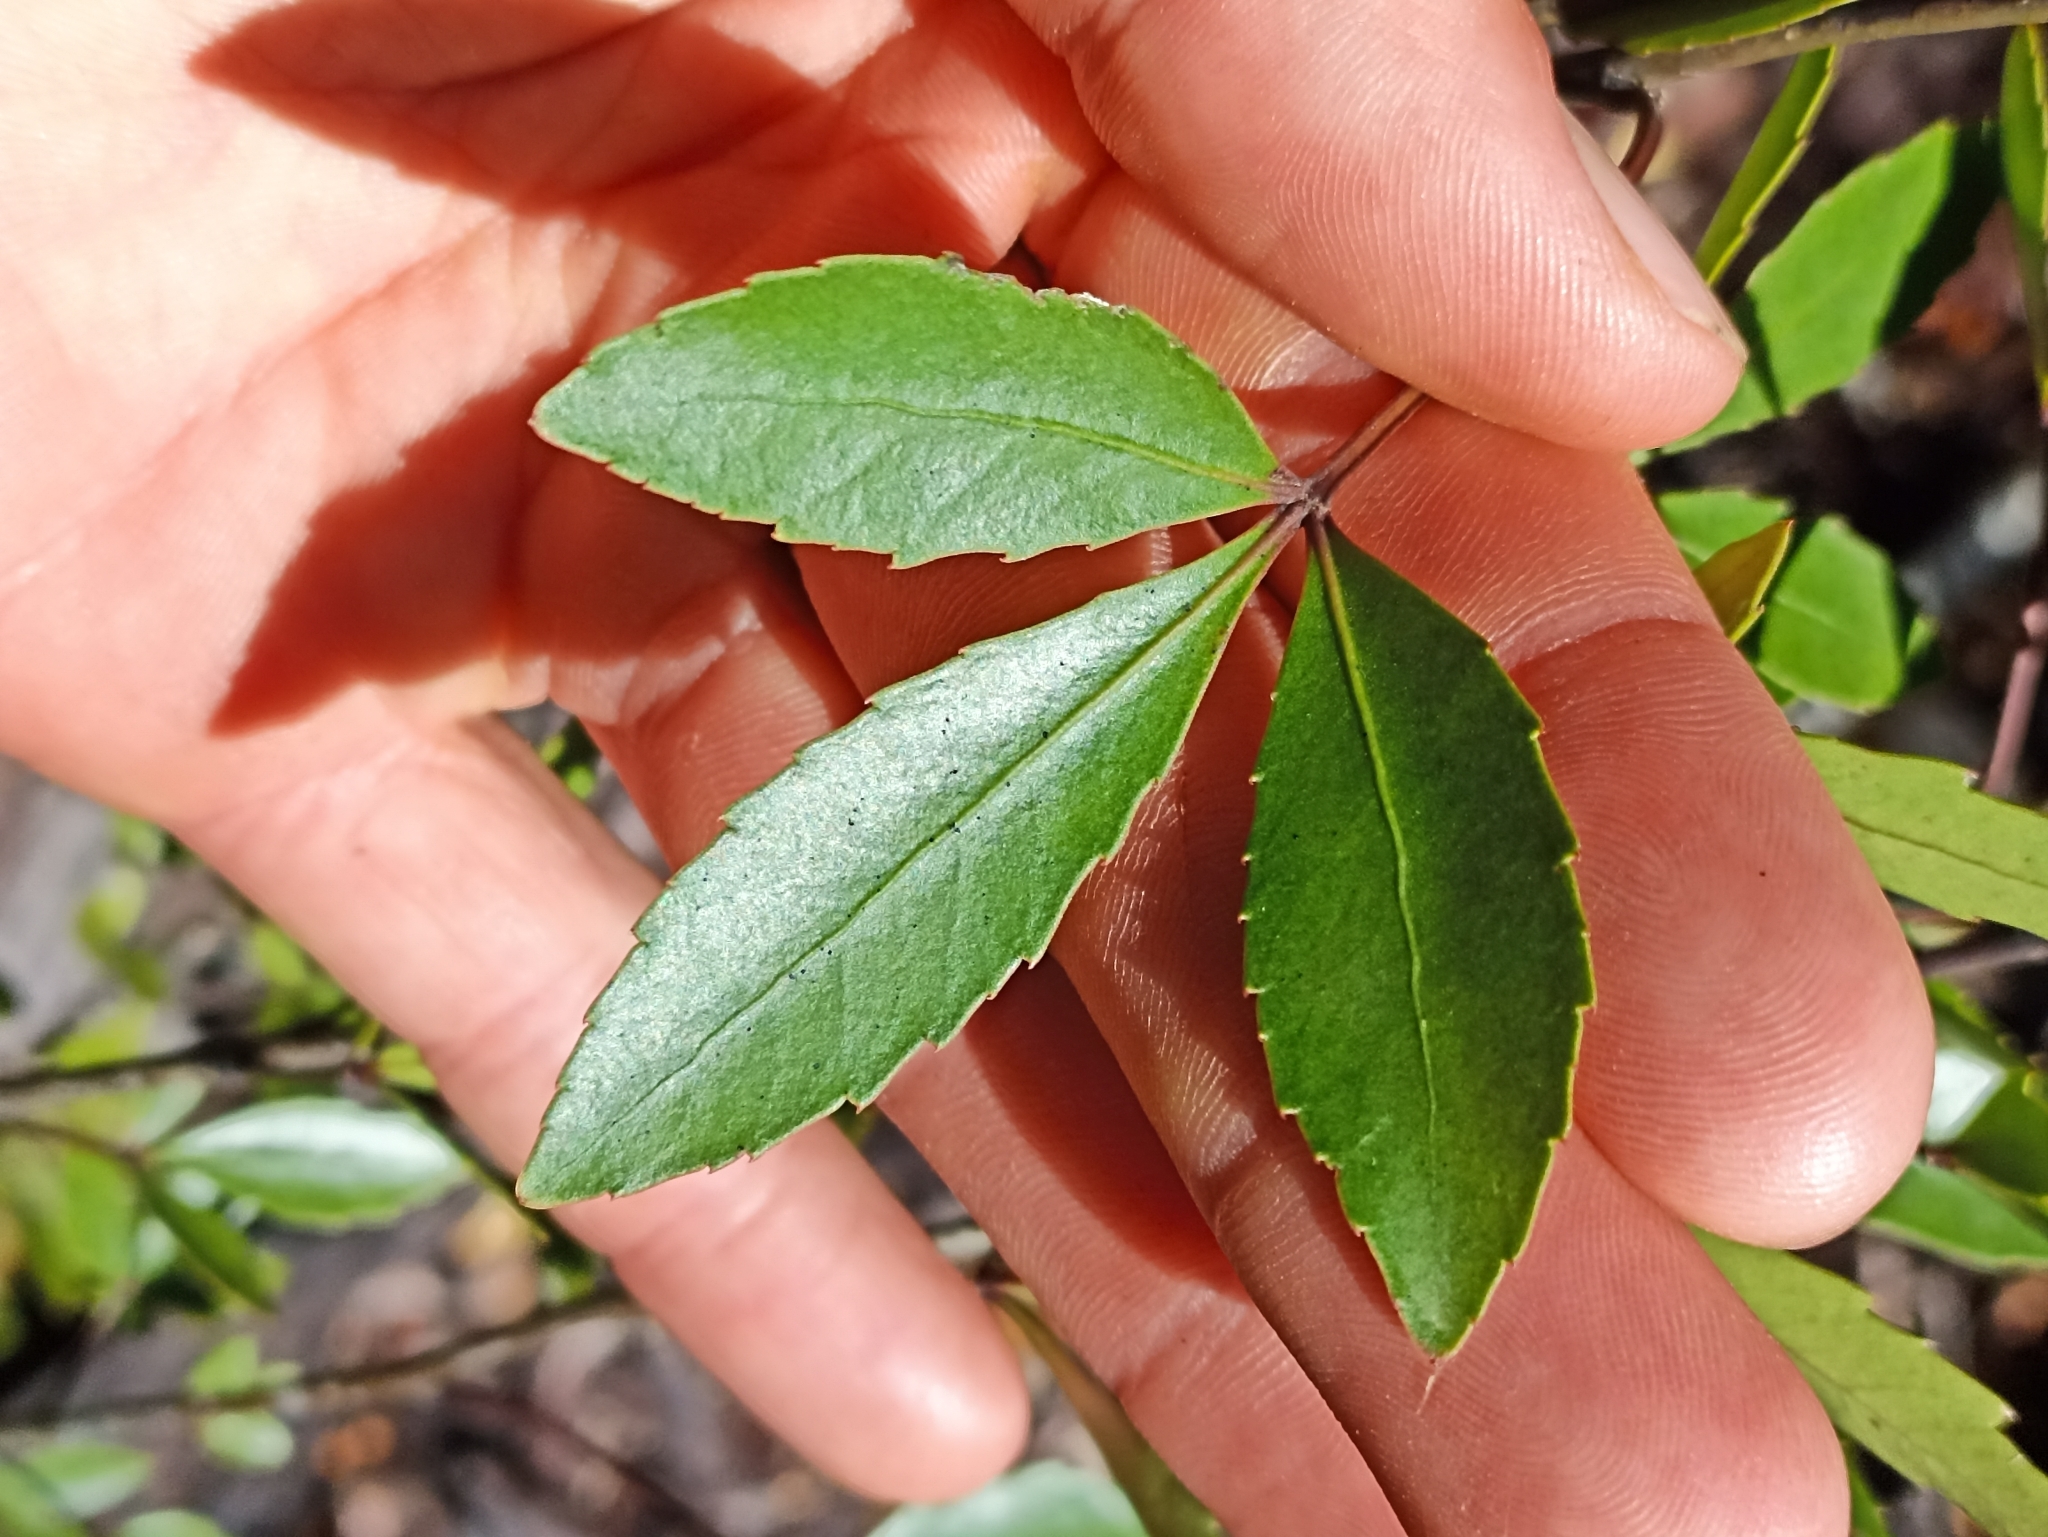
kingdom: Plantae
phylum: Tracheophyta
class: Magnoliopsida
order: Apiales
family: Araliaceae
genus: Raukaua
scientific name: Raukaua simplex
